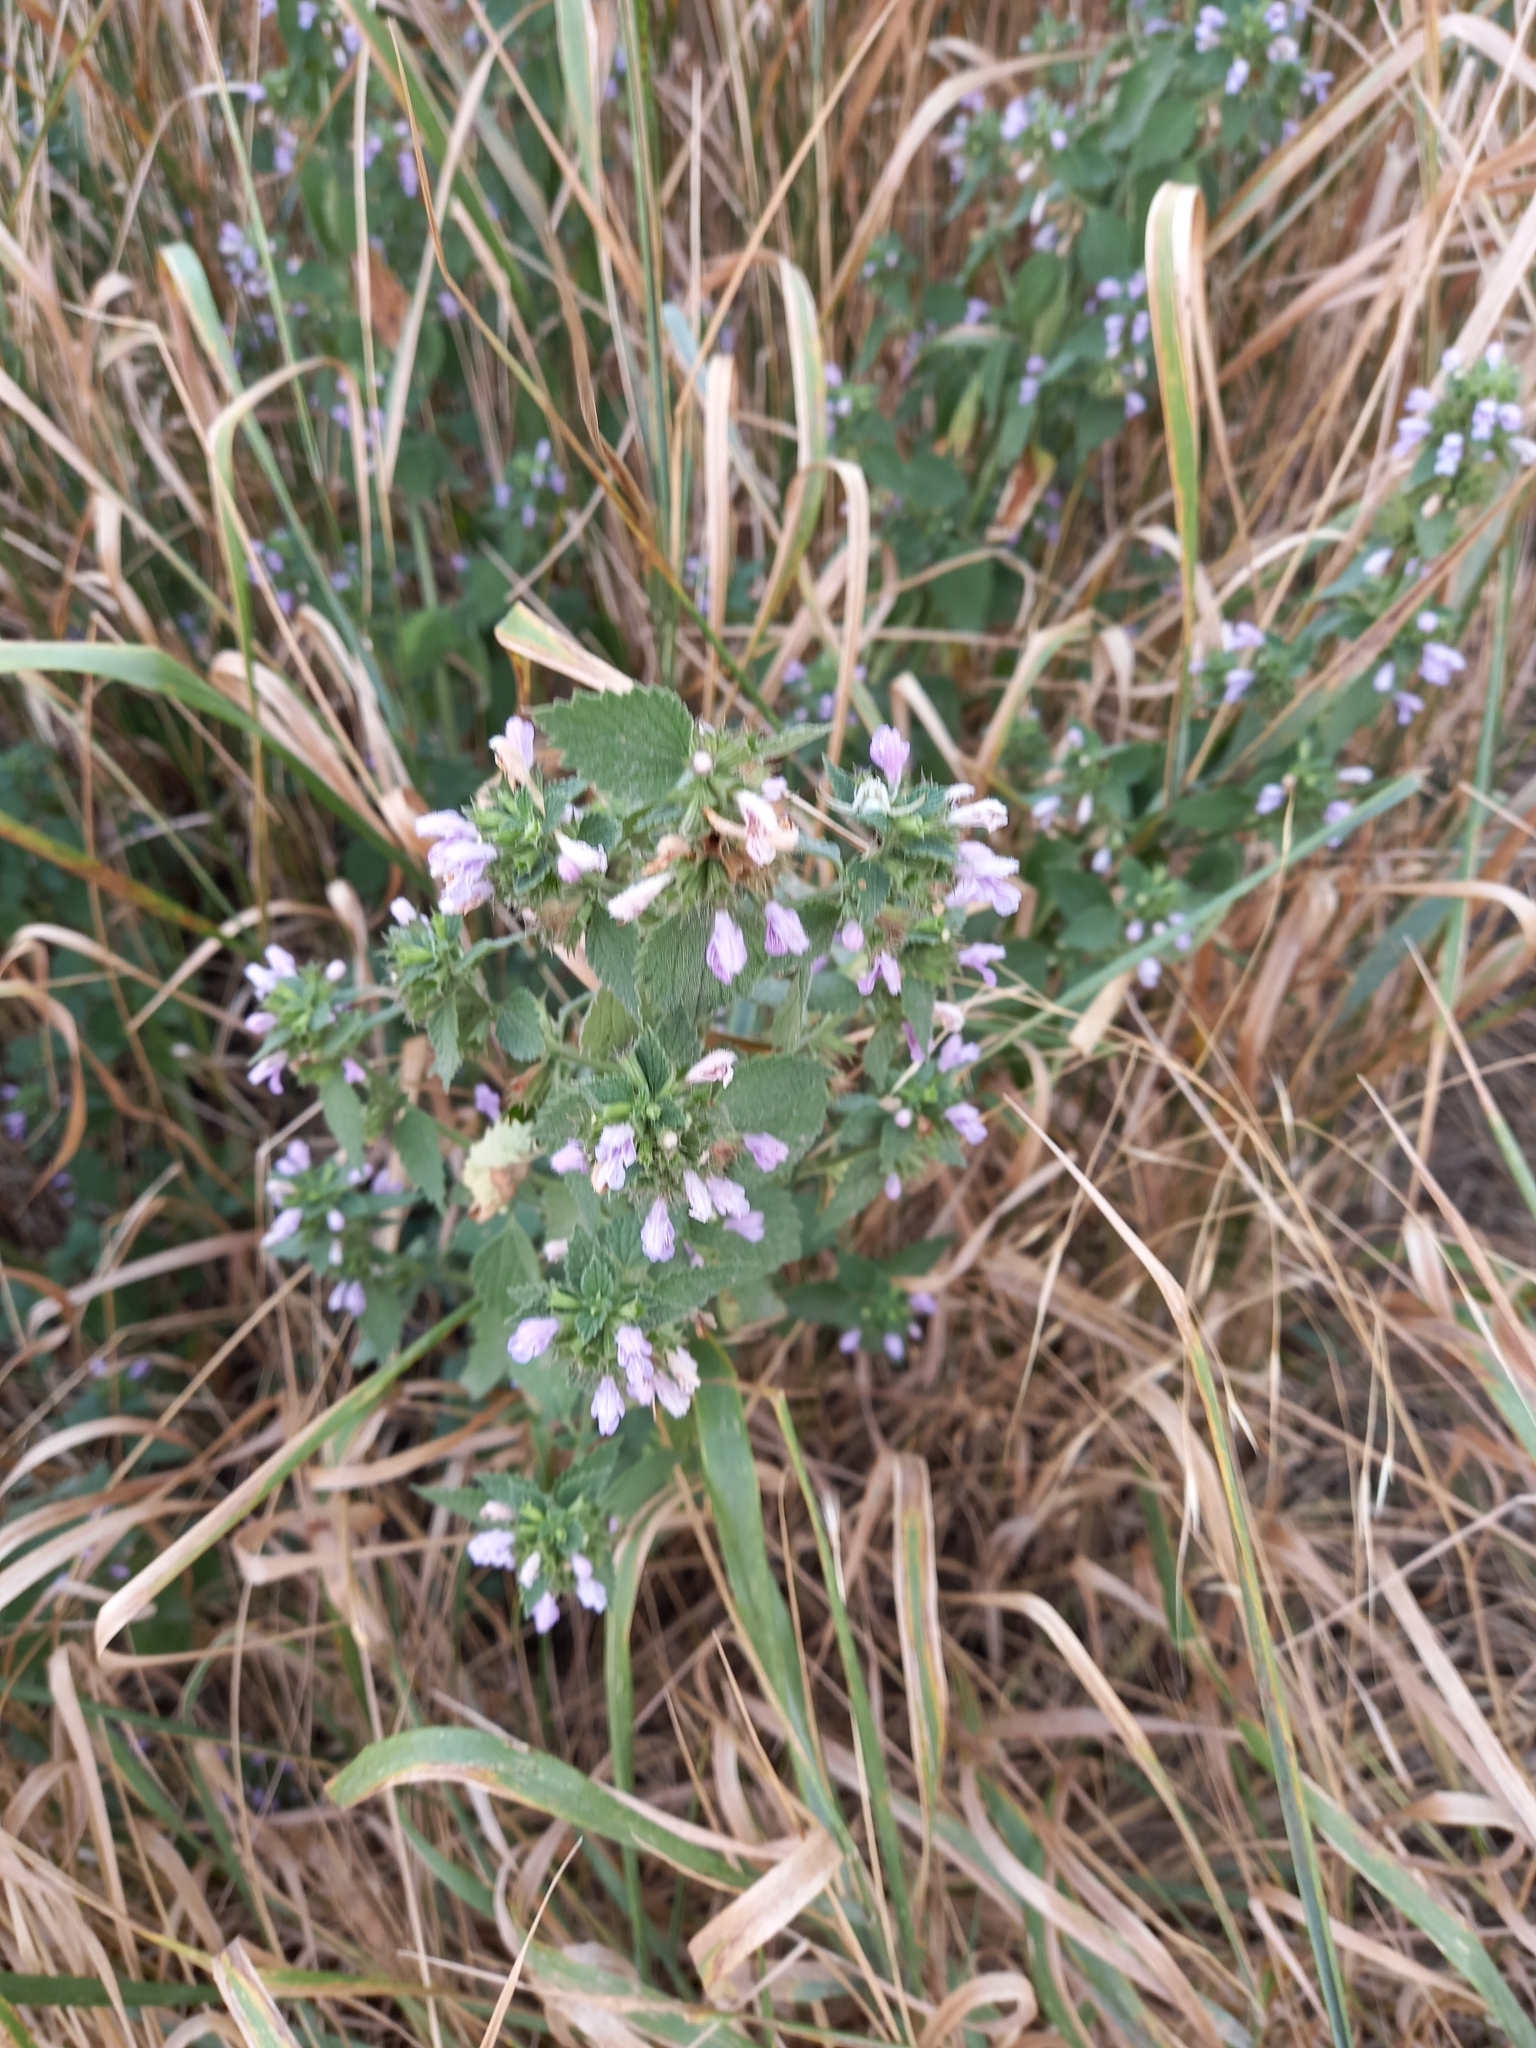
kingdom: Plantae
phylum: Tracheophyta
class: Magnoliopsida
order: Lamiales
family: Lamiaceae
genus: Ballota
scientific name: Ballota nigra
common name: Black horehound
